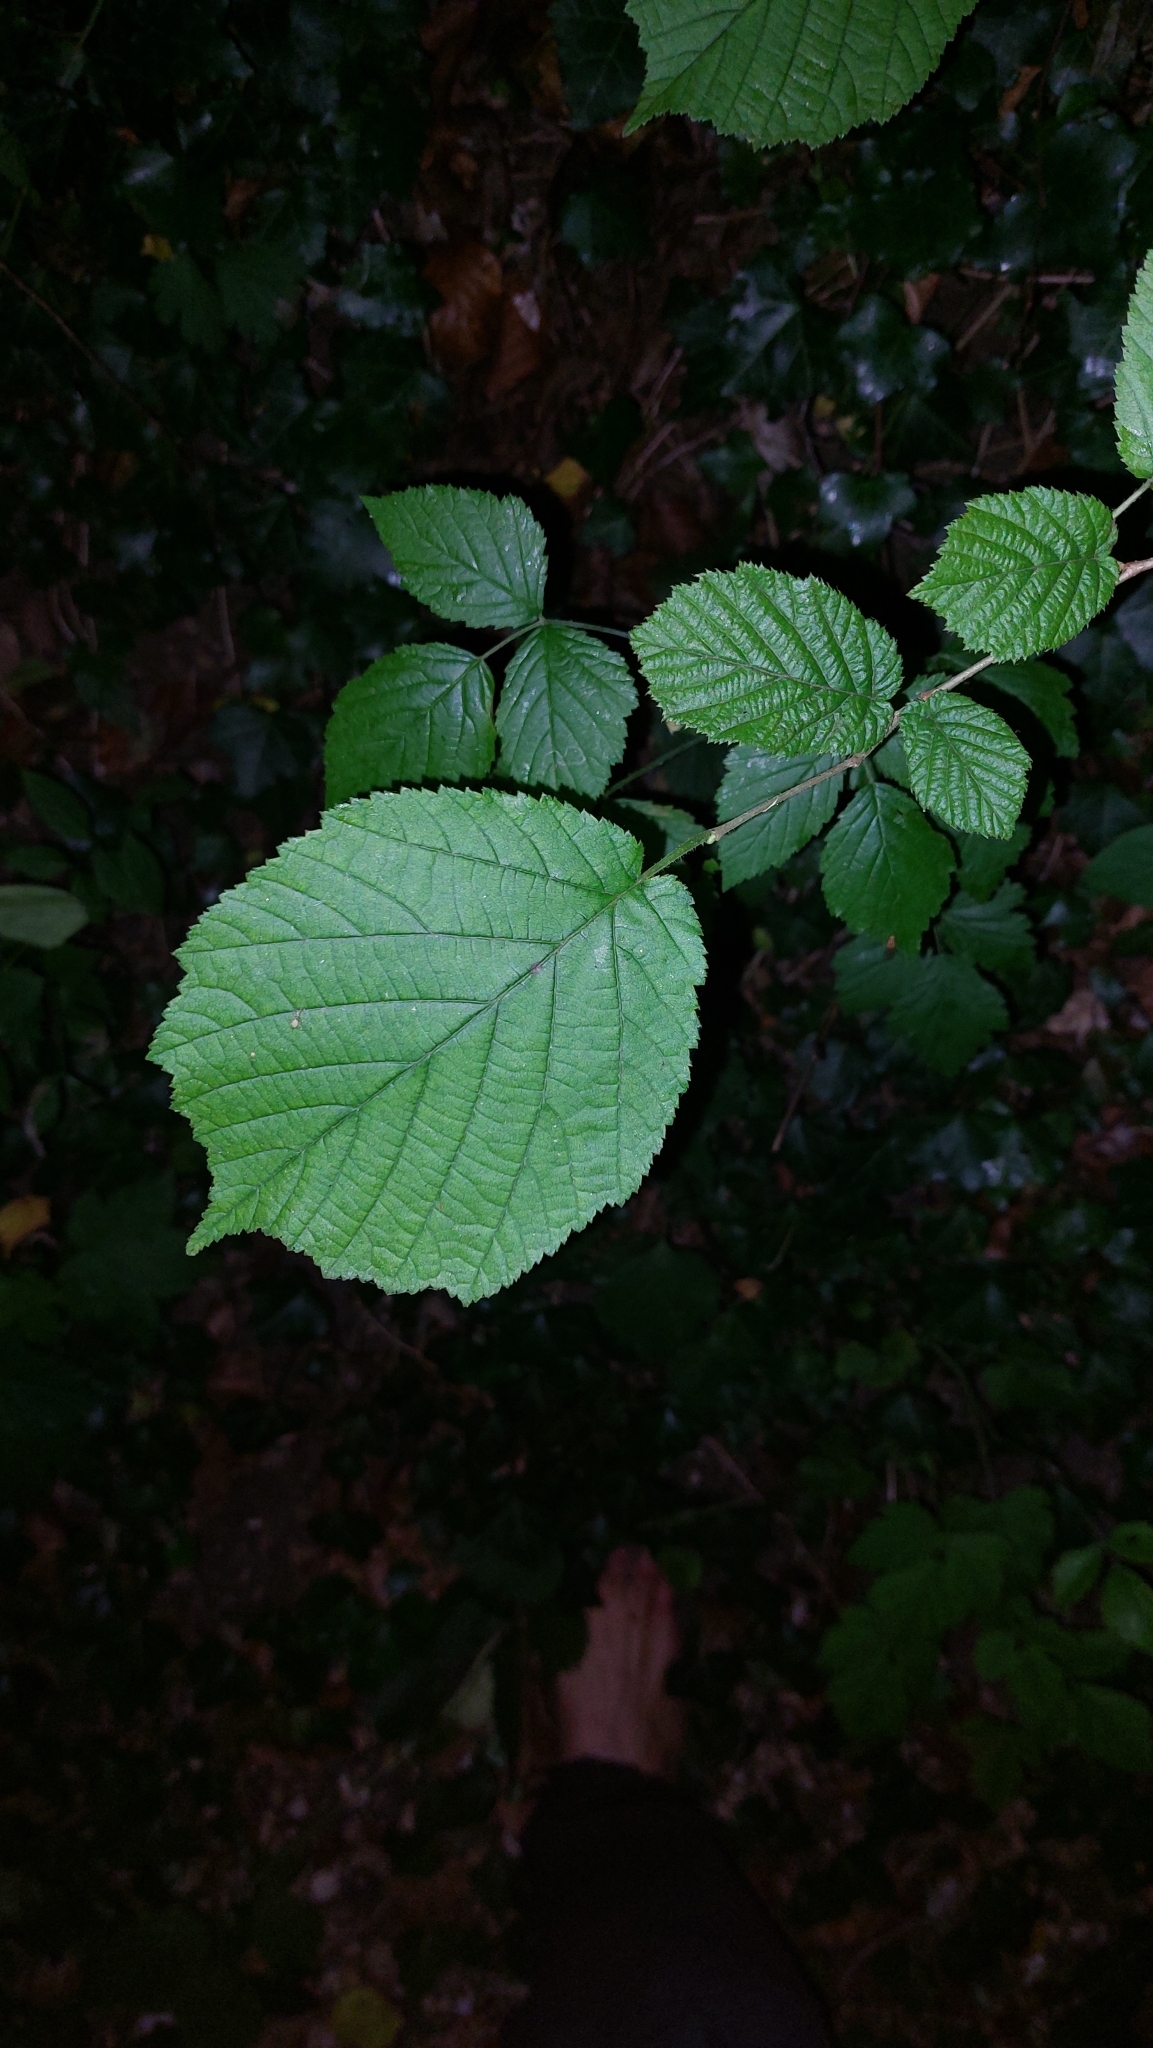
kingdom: Plantae
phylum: Tracheophyta
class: Magnoliopsida
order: Fagales
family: Betulaceae
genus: Corylus
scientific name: Corylus avellana
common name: European hazel
